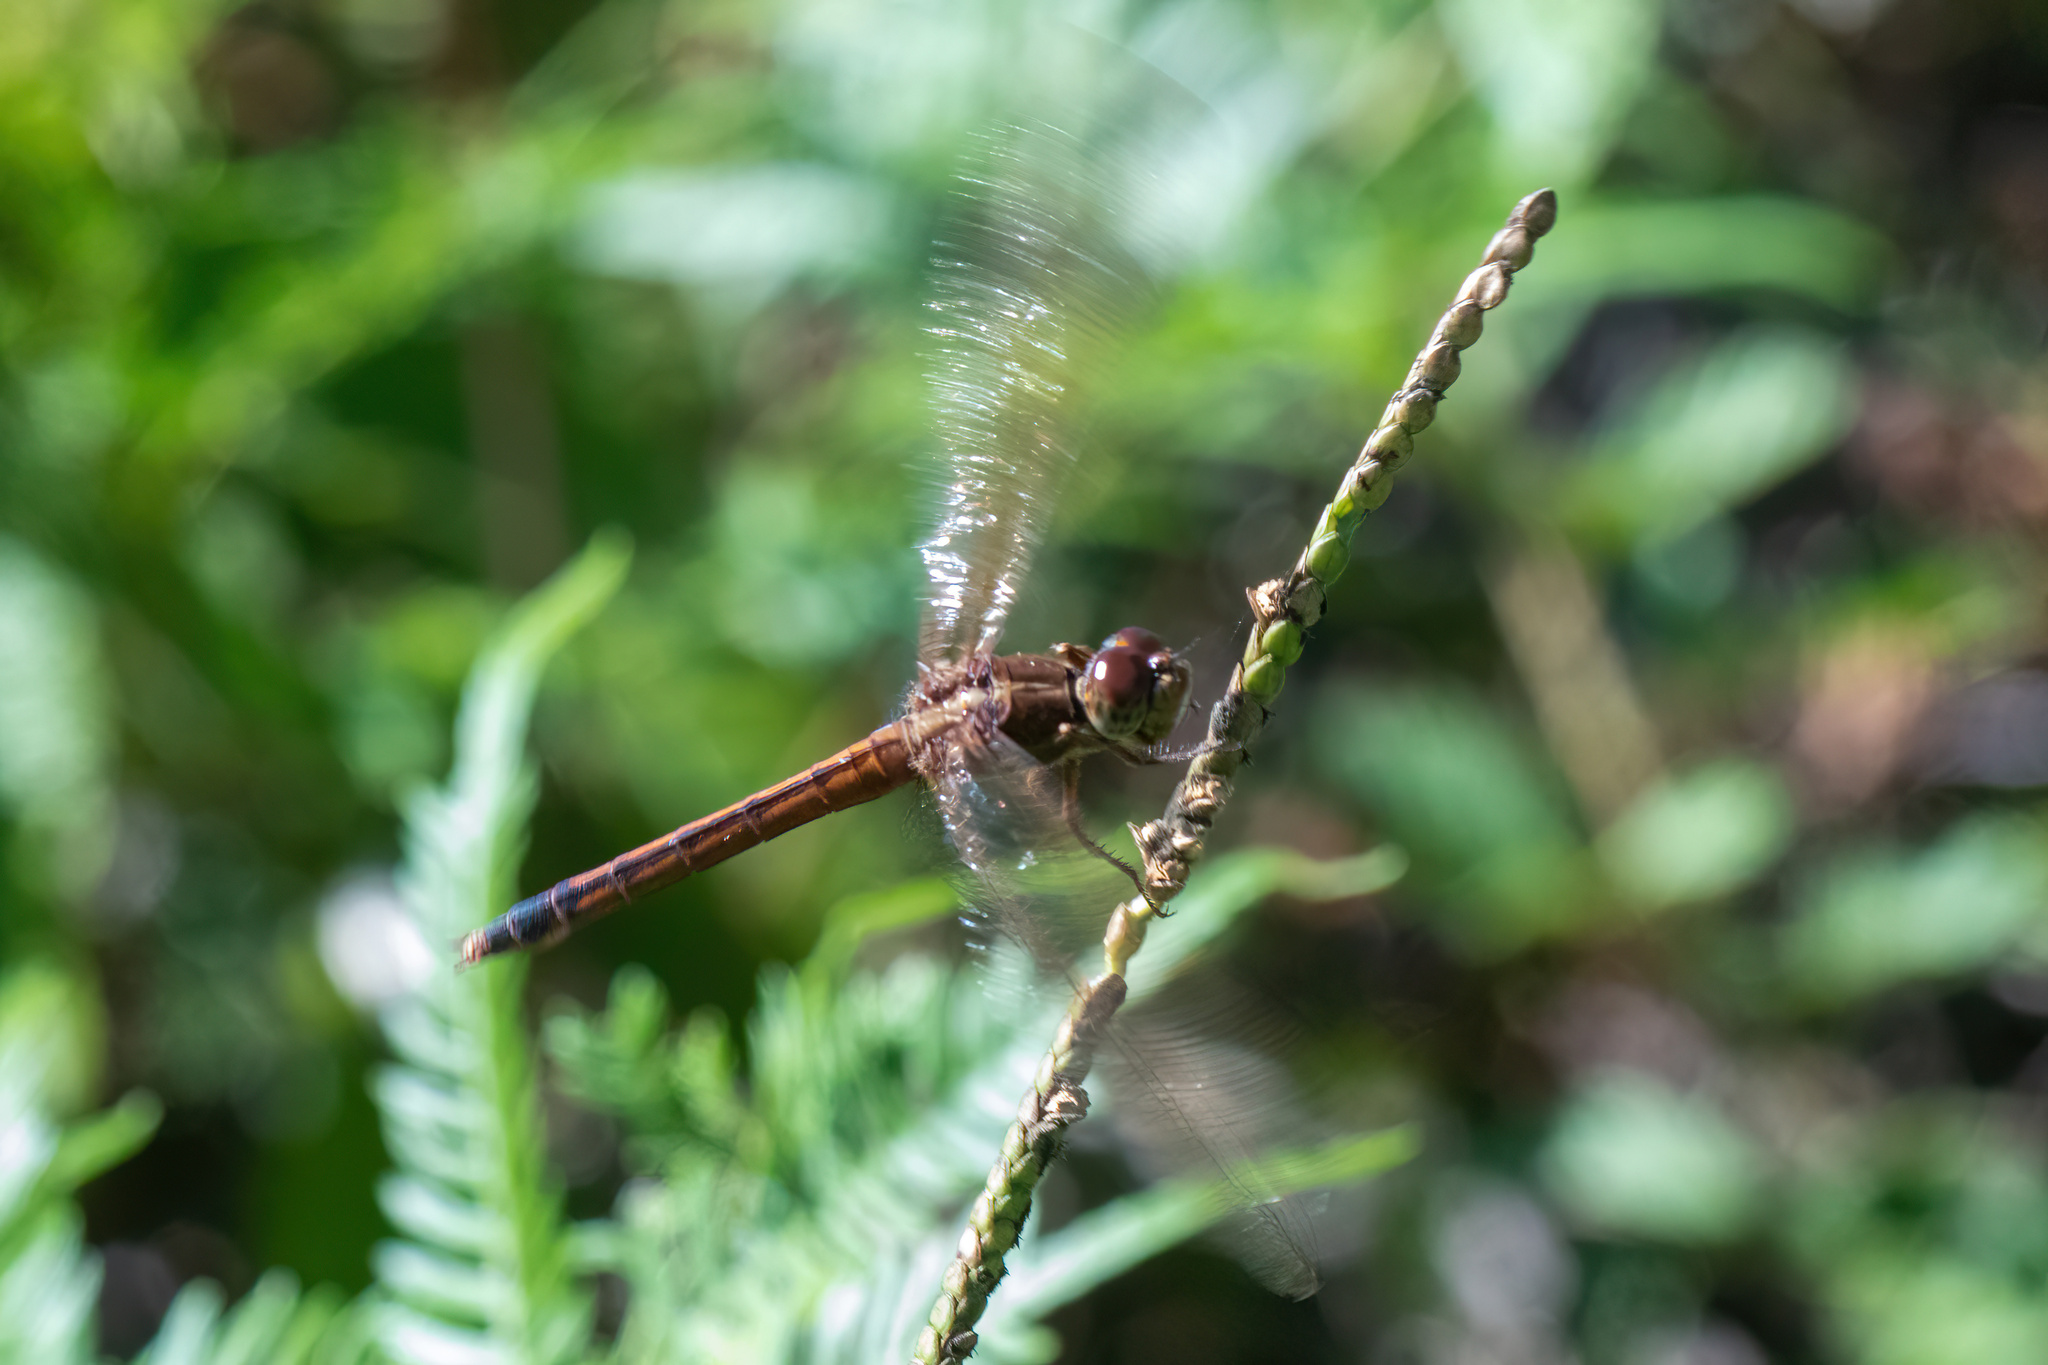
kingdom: Animalia
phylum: Arthropoda
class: Insecta
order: Odonata
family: Libellulidae
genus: Libellula
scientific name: Libellula needhami
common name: Needham's skimmer
